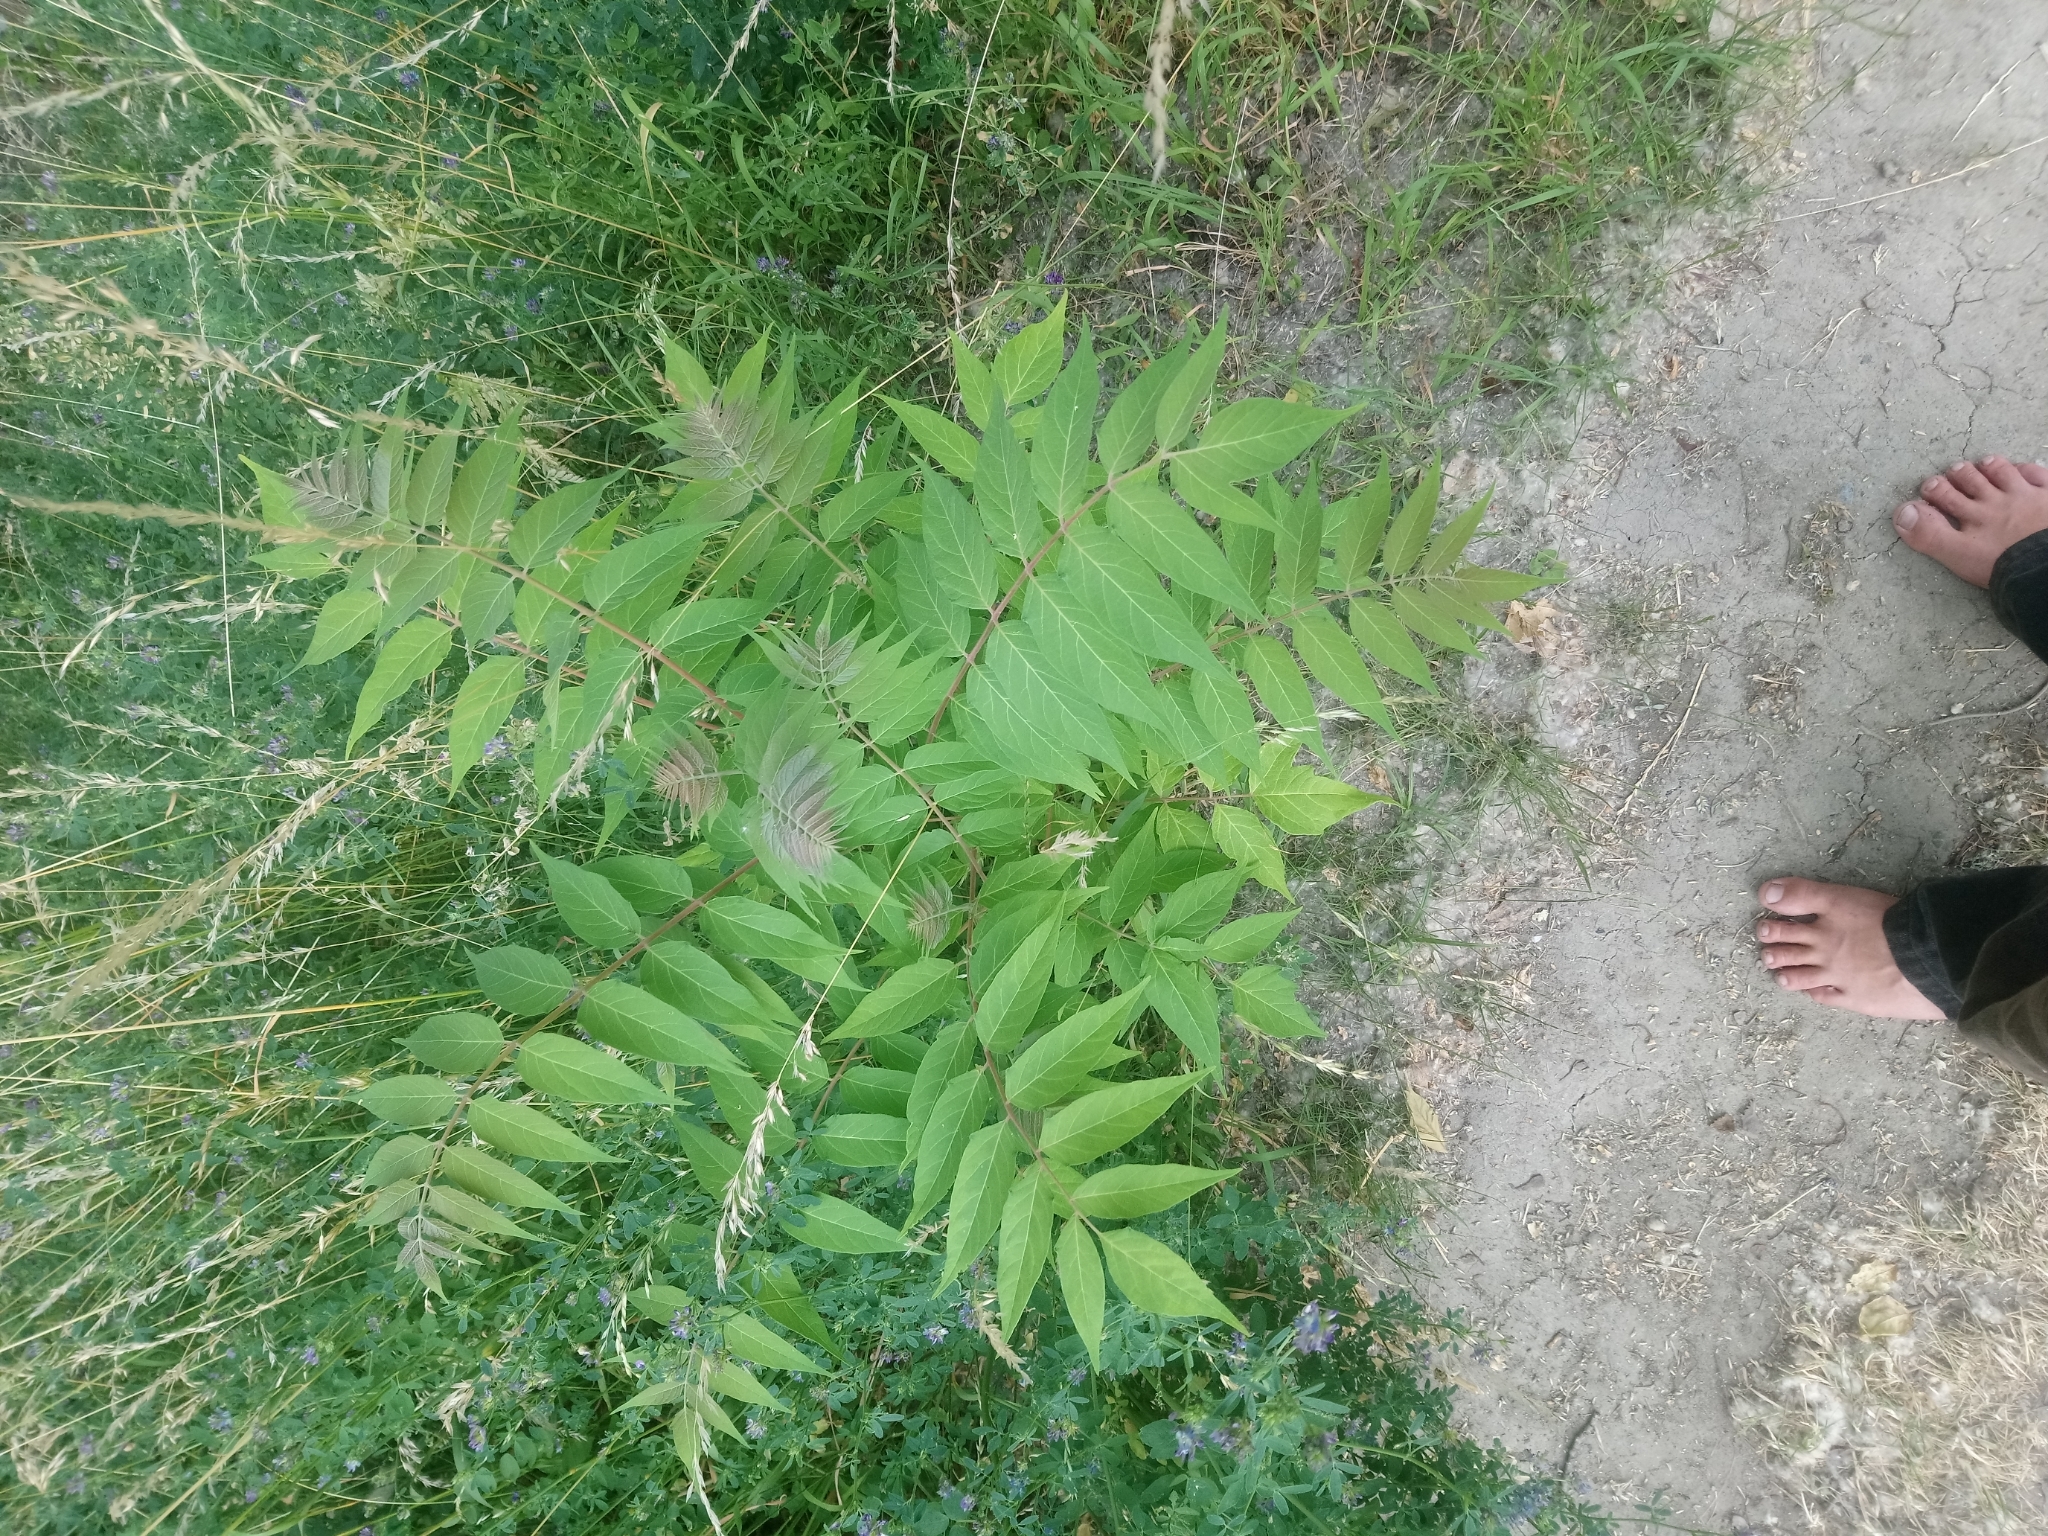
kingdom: Plantae
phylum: Tracheophyta
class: Magnoliopsida
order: Sapindales
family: Simaroubaceae
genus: Ailanthus
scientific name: Ailanthus altissima
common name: Tree-of-heaven
